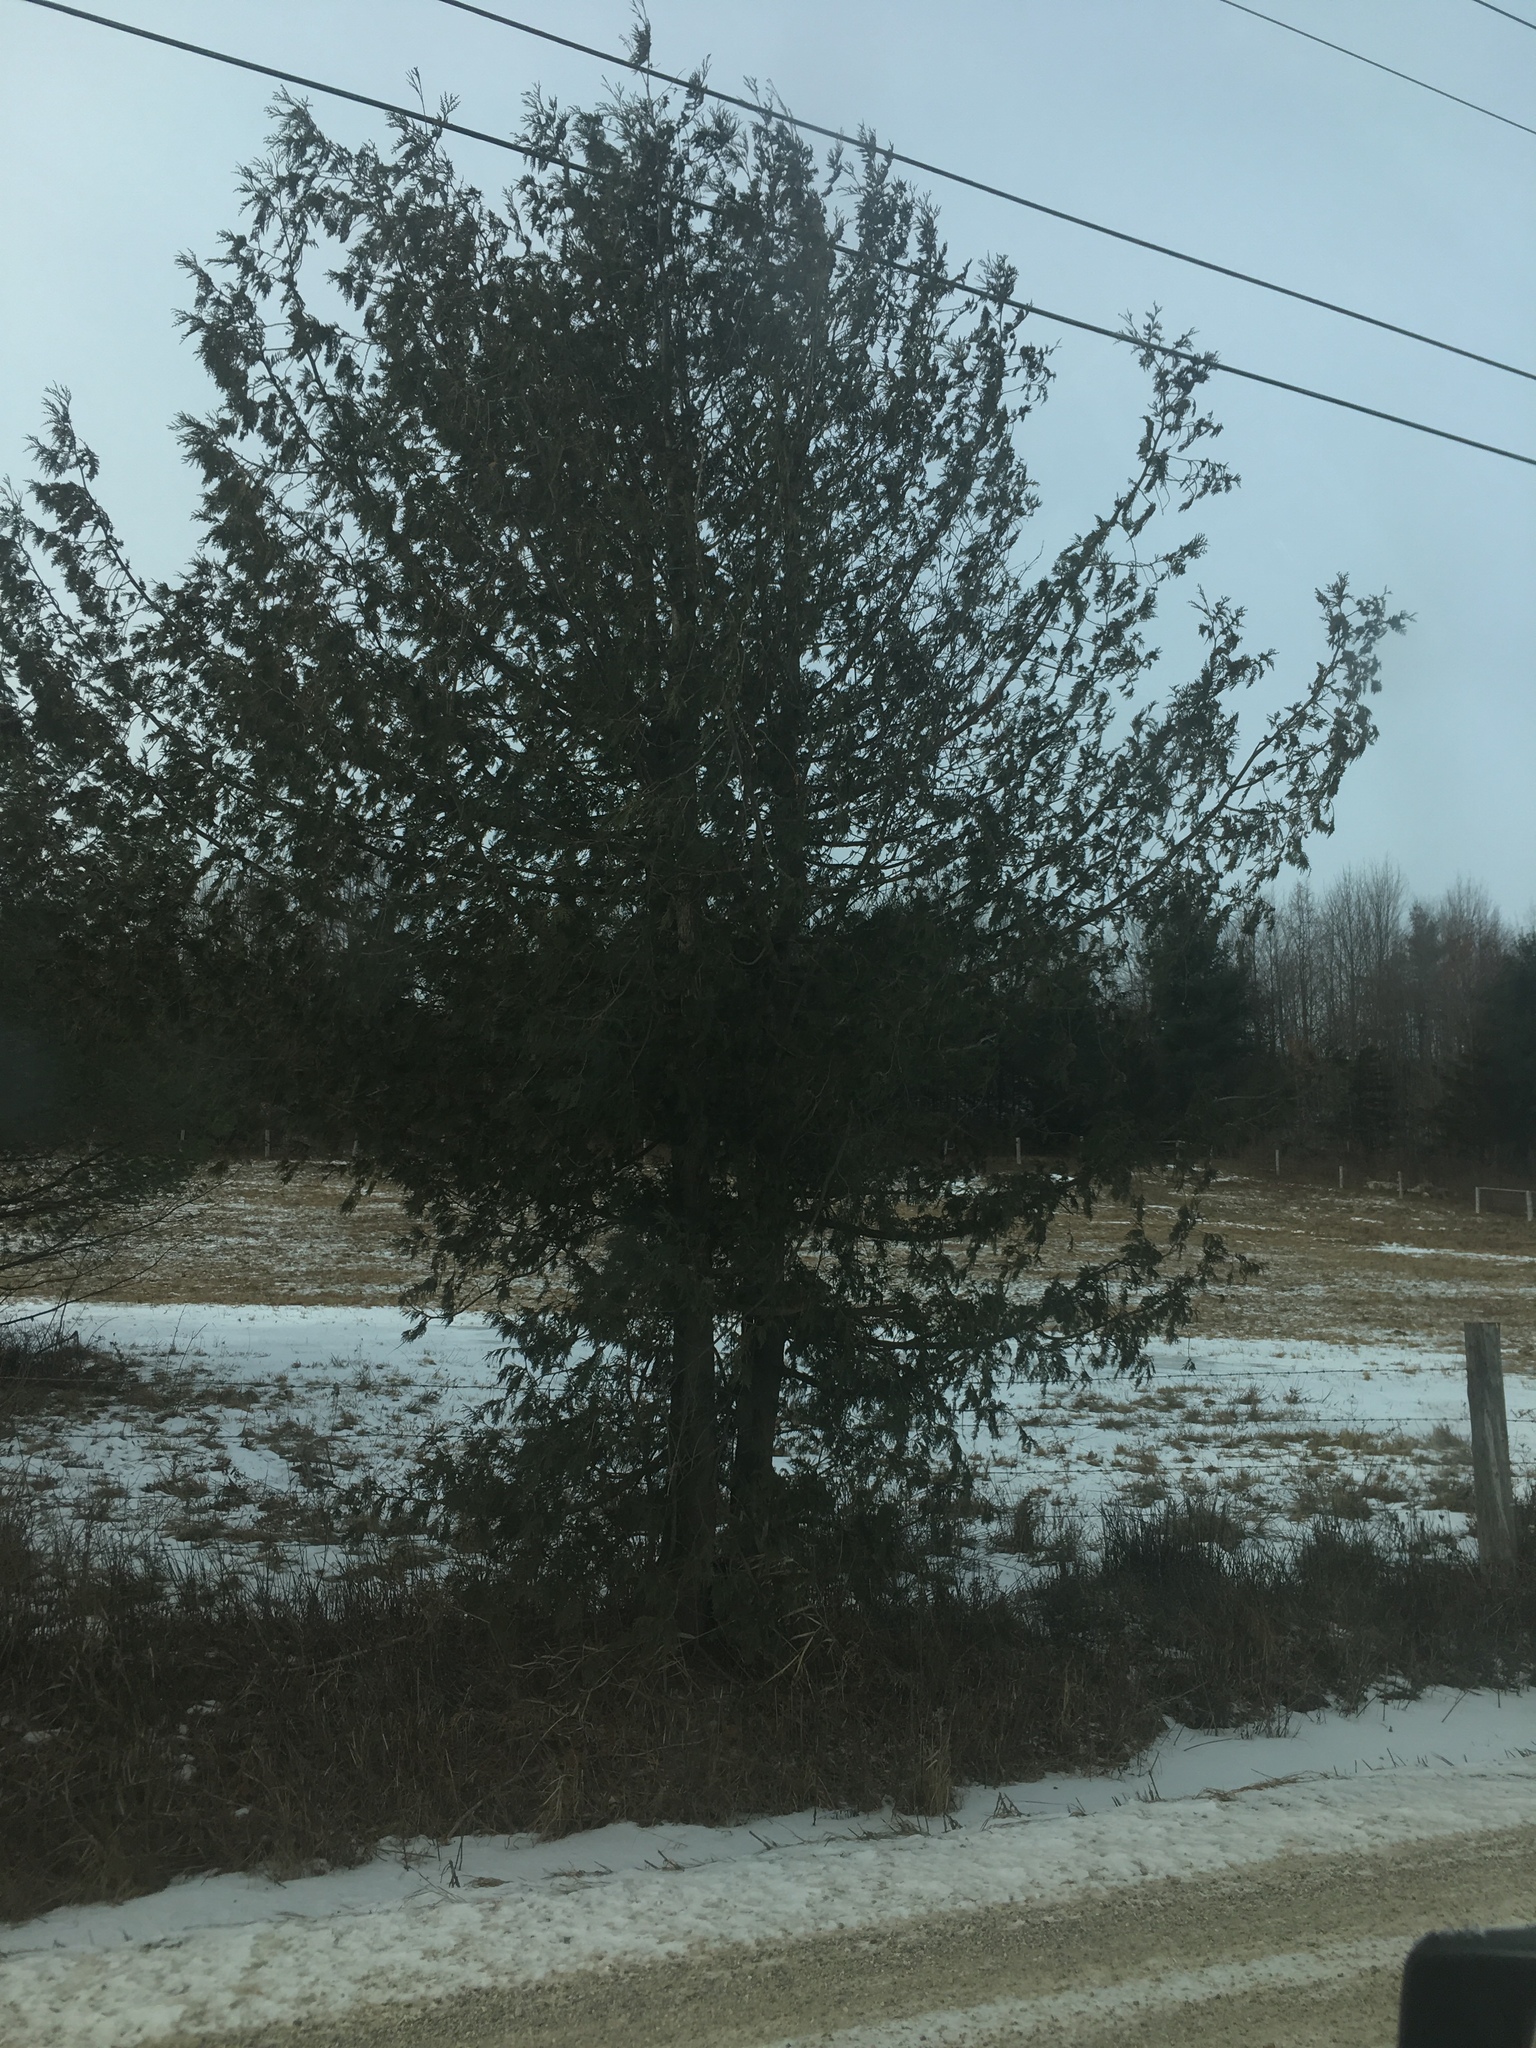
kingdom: Plantae
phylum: Tracheophyta
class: Pinopsida
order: Pinales
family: Cupressaceae
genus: Thuja
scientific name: Thuja occidentalis
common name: Northern white-cedar
